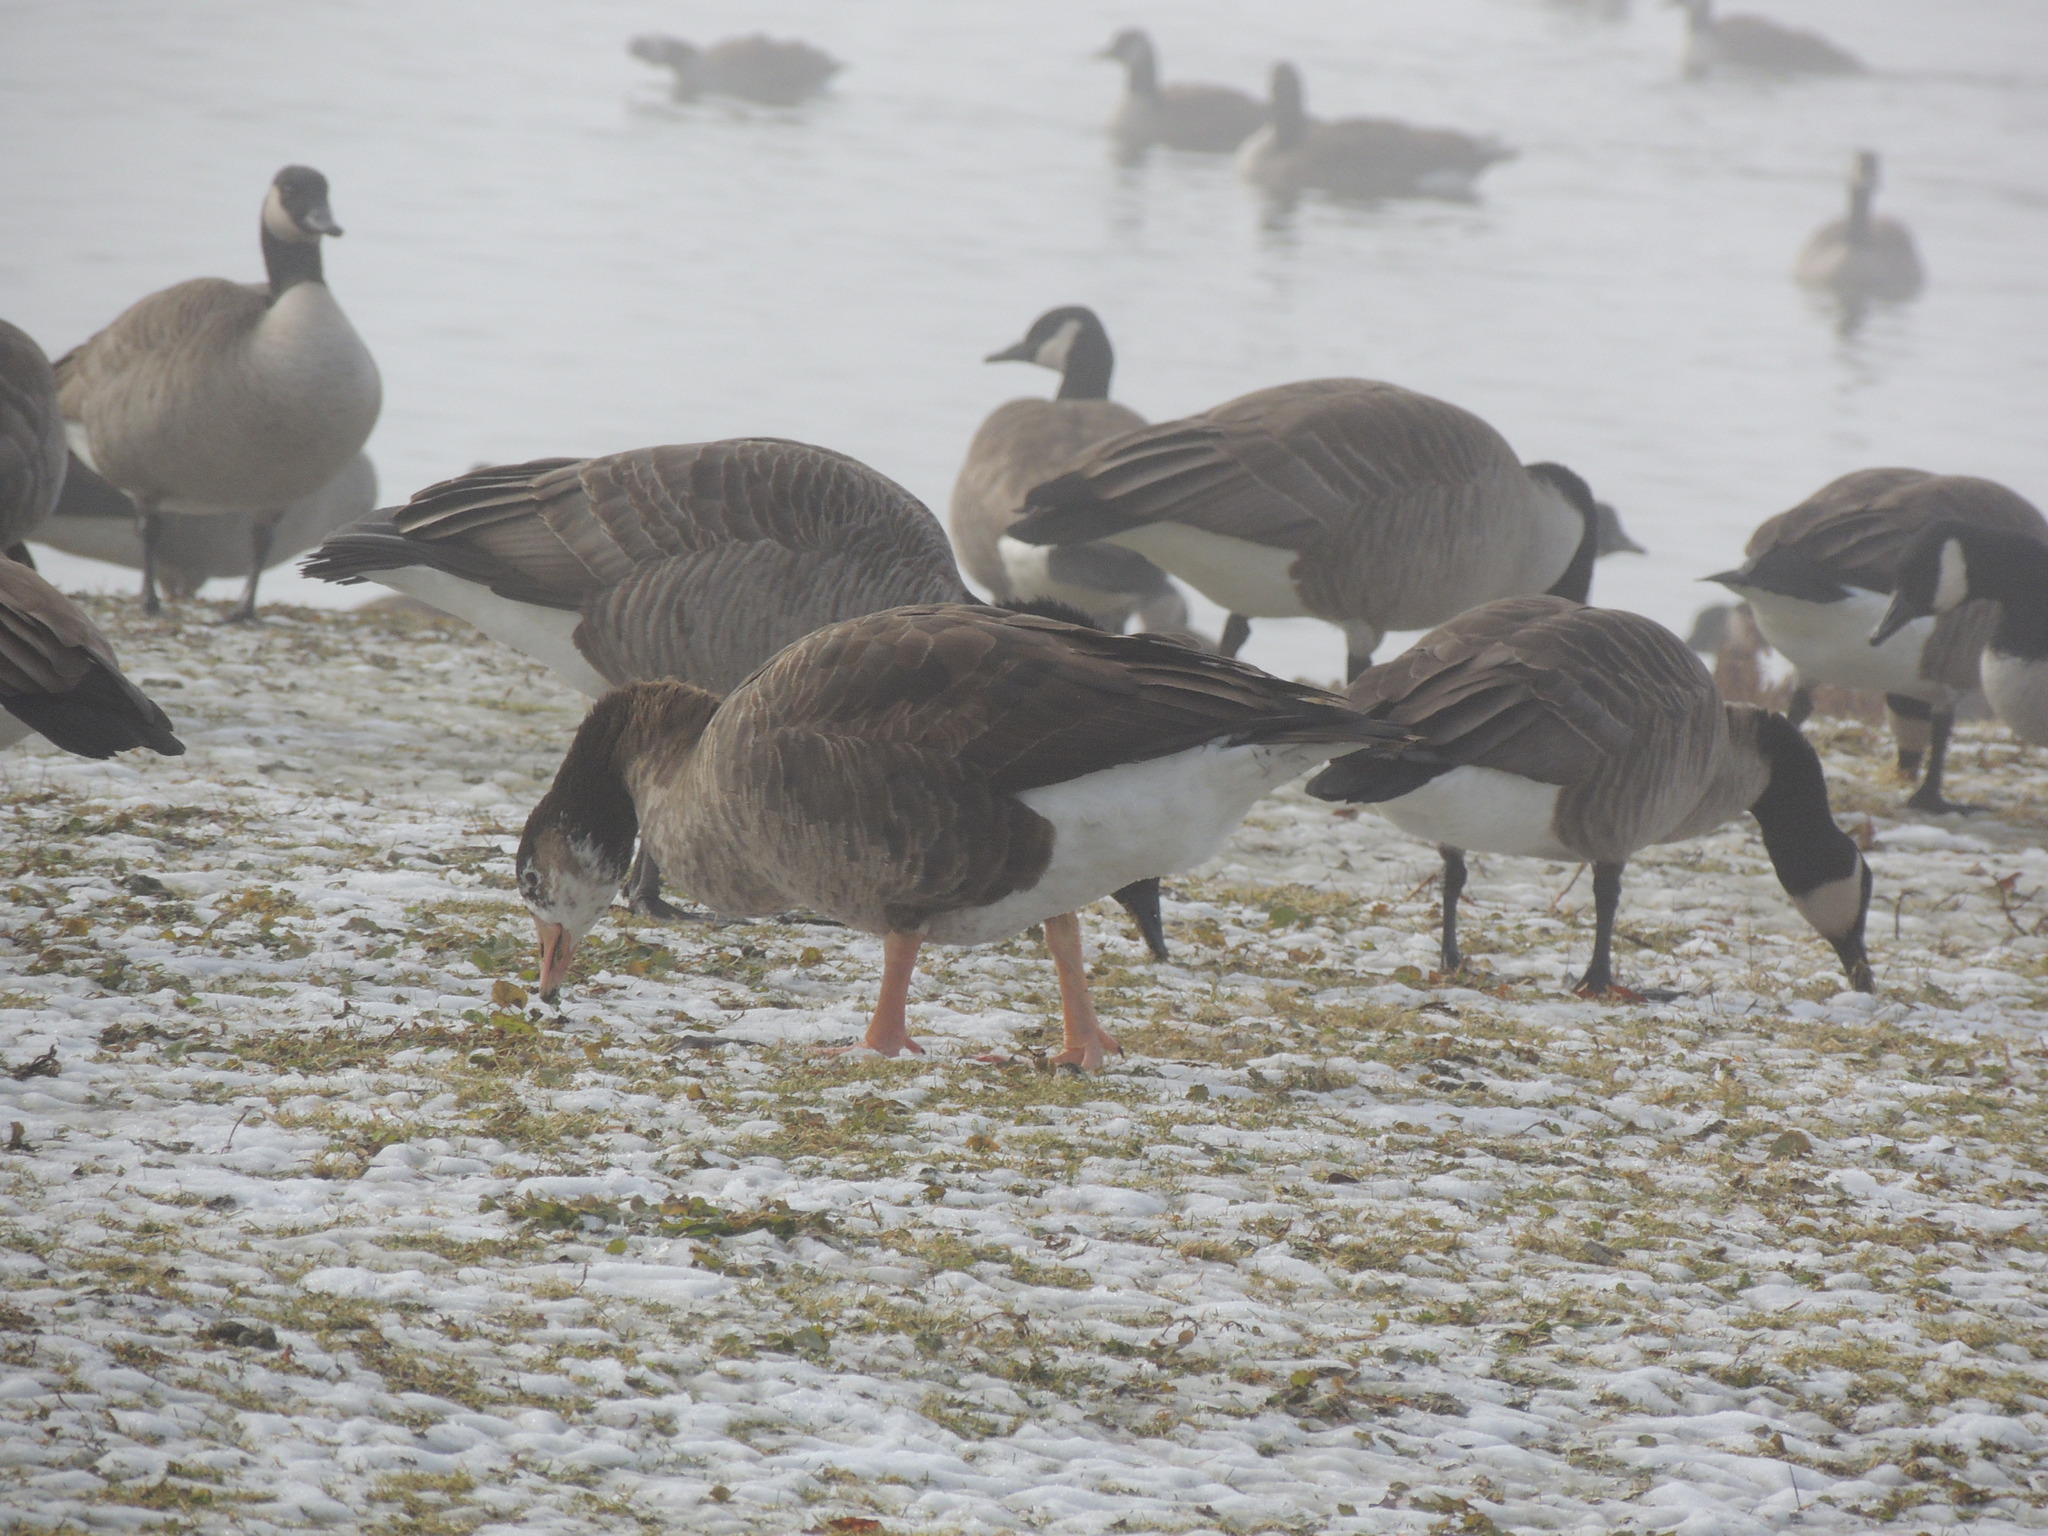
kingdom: Animalia
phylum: Chordata
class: Aves
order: Anseriformes
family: Anatidae
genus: Branta
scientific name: Branta canadensis
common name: Canada goose
